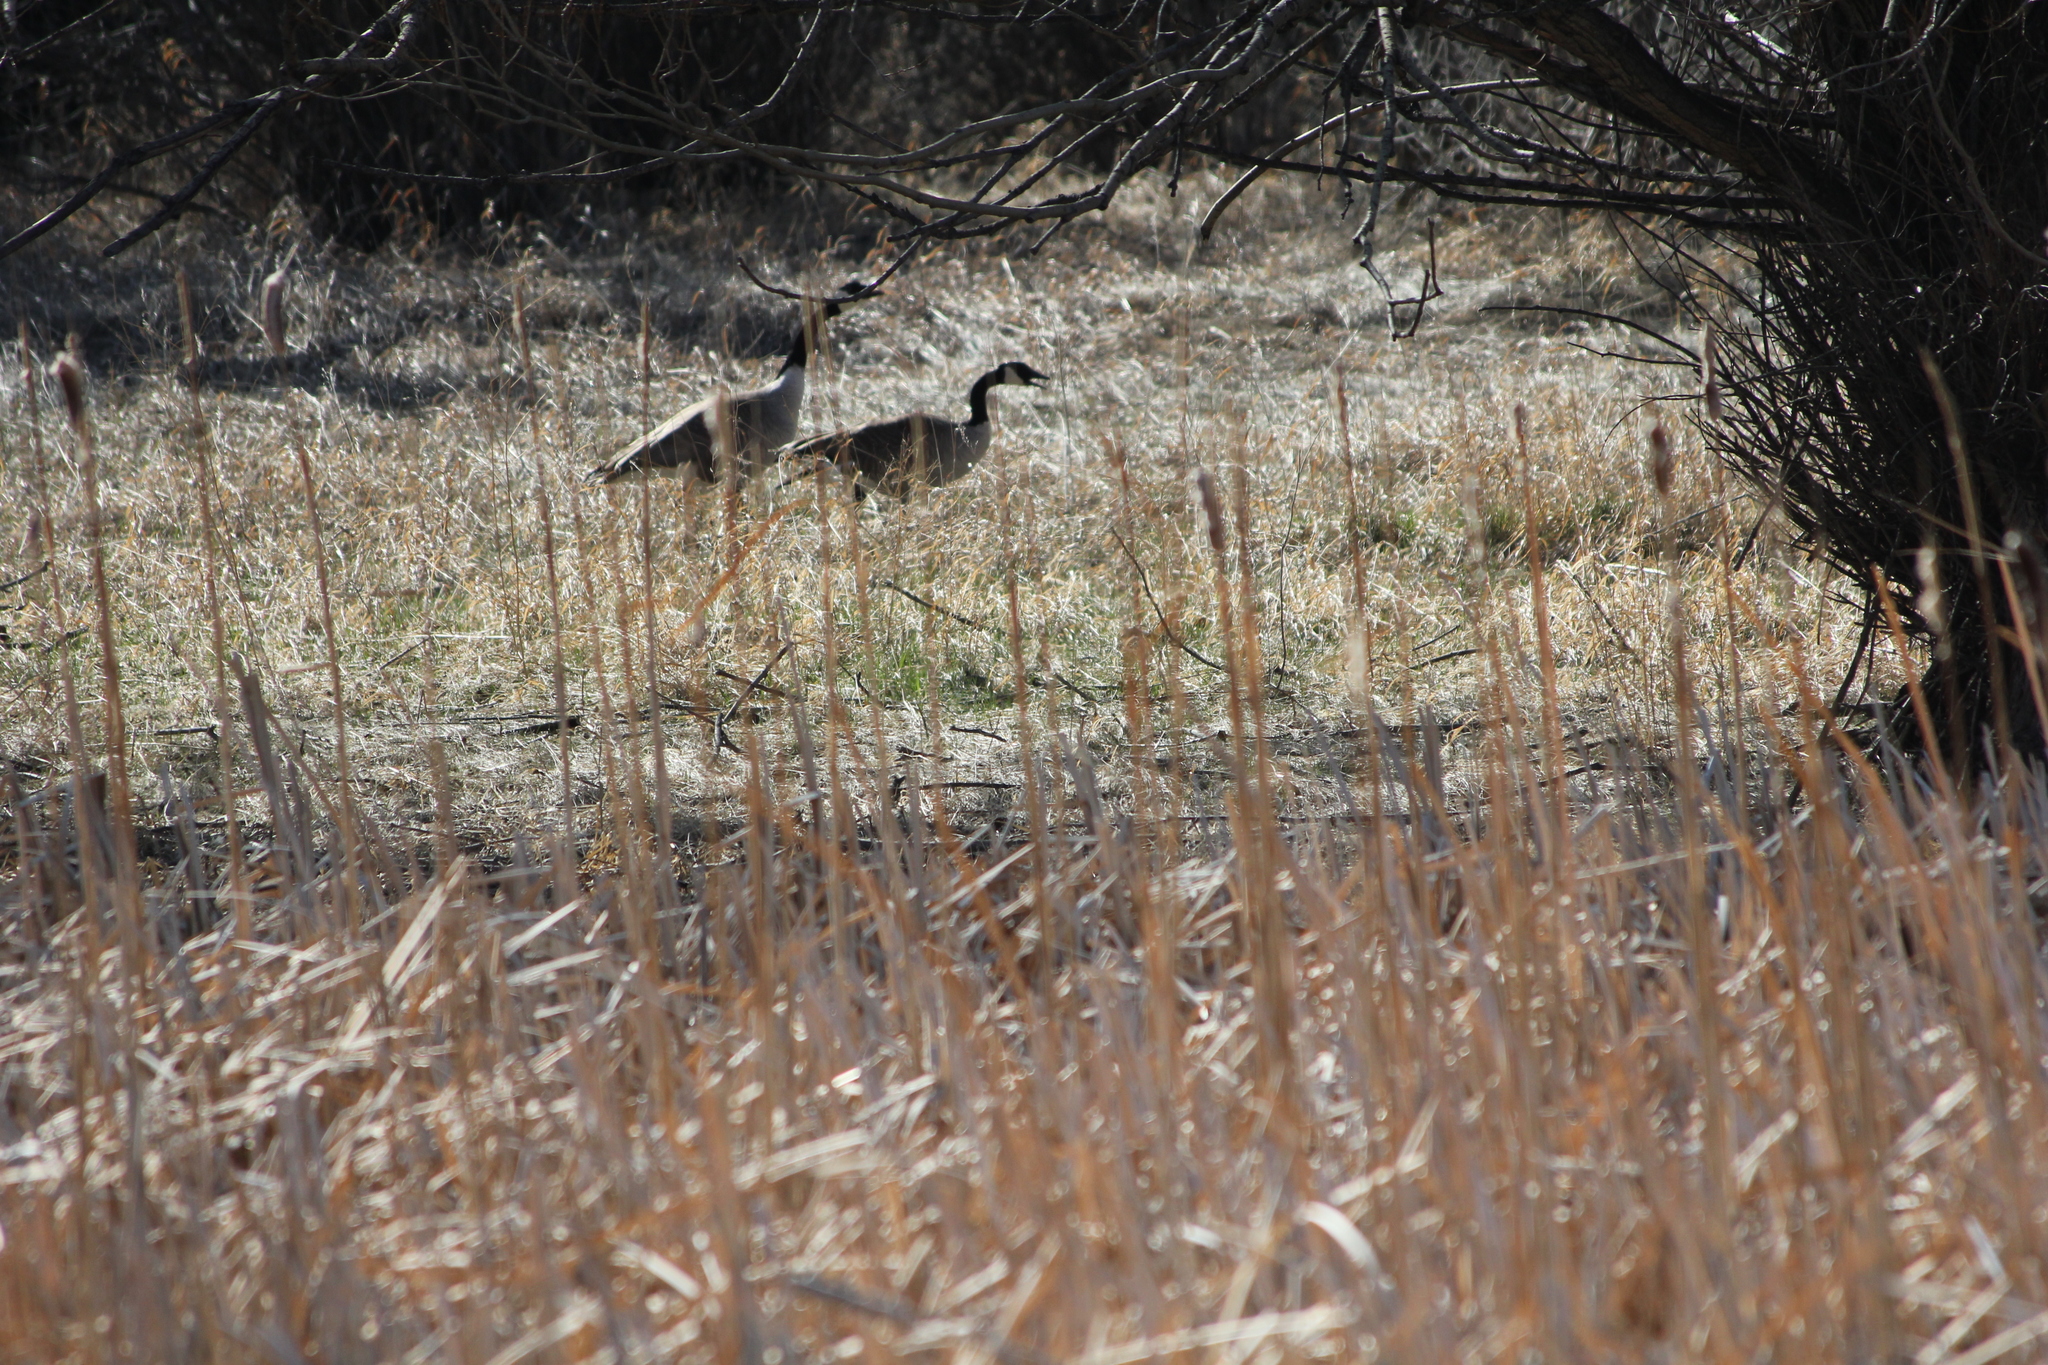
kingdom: Animalia
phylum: Chordata
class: Aves
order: Anseriformes
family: Anatidae
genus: Branta
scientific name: Branta canadensis
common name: Canada goose
